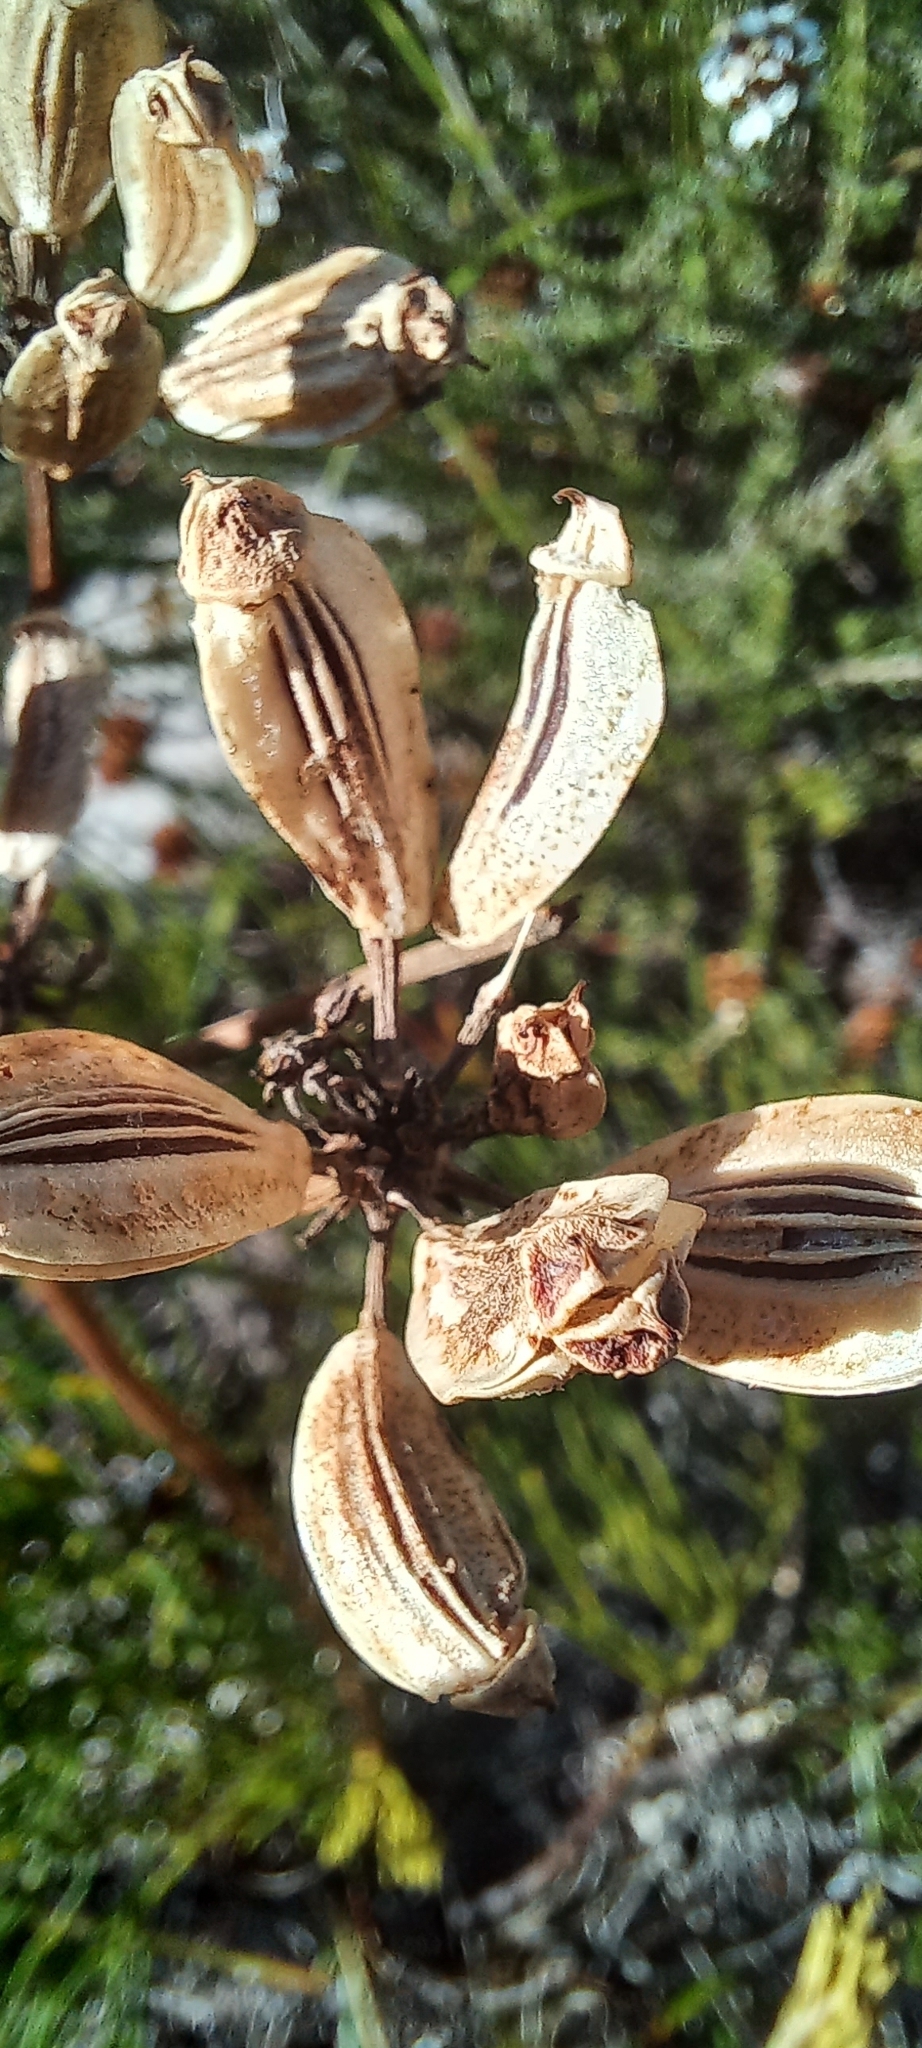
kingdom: Plantae
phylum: Tracheophyta
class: Magnoliopsida
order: Apiales
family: Apiaceae
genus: Nanobubon
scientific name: Nanobubon strictum
